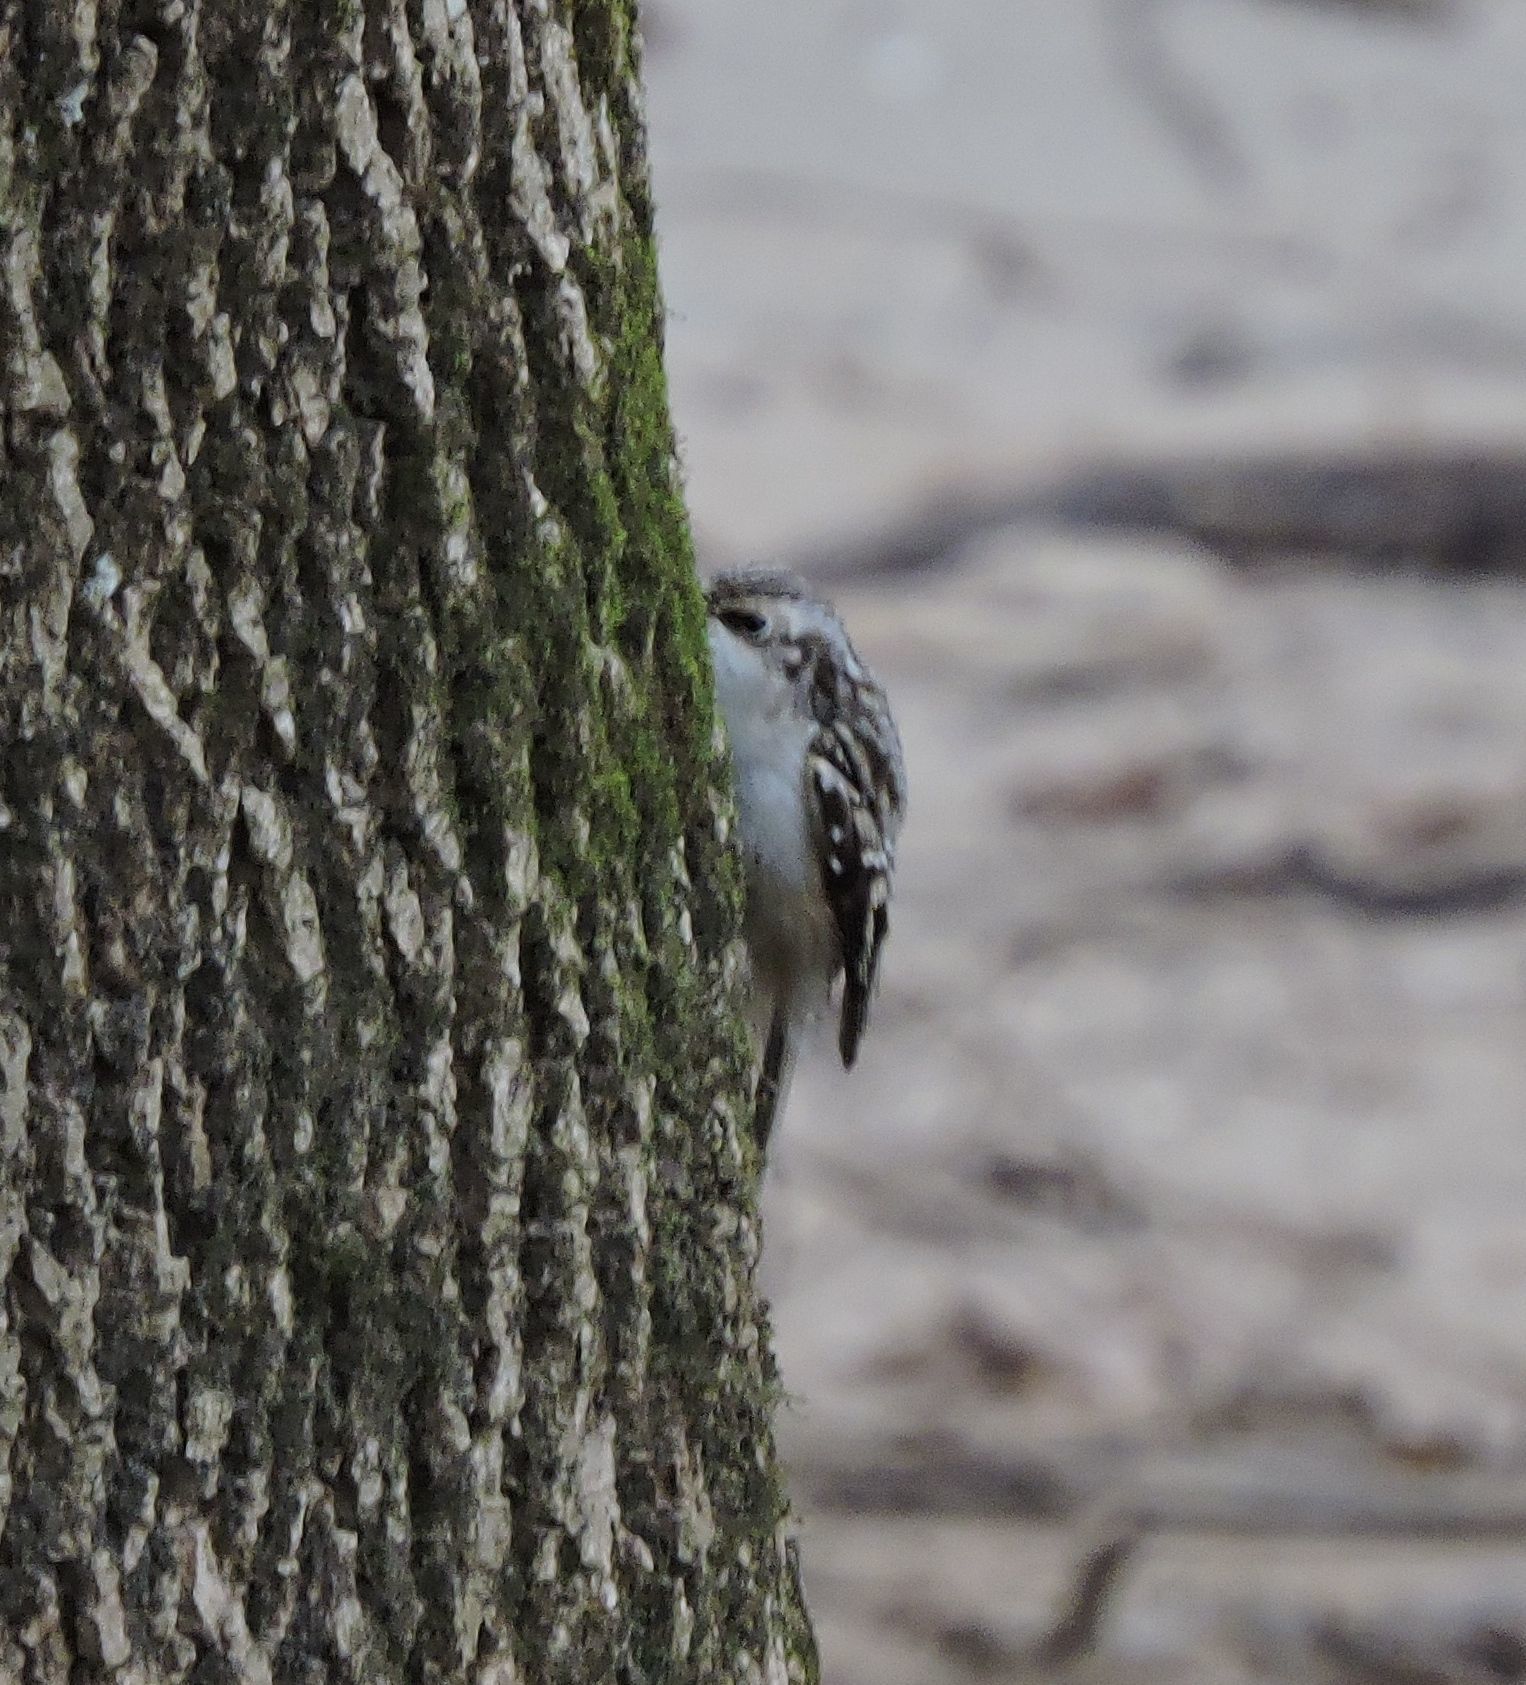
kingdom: Animalia
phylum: Chordata
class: Aves
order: Passeriformes
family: Certhiidae
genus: Certhia
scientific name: Certhia americana
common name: Brown creeper
